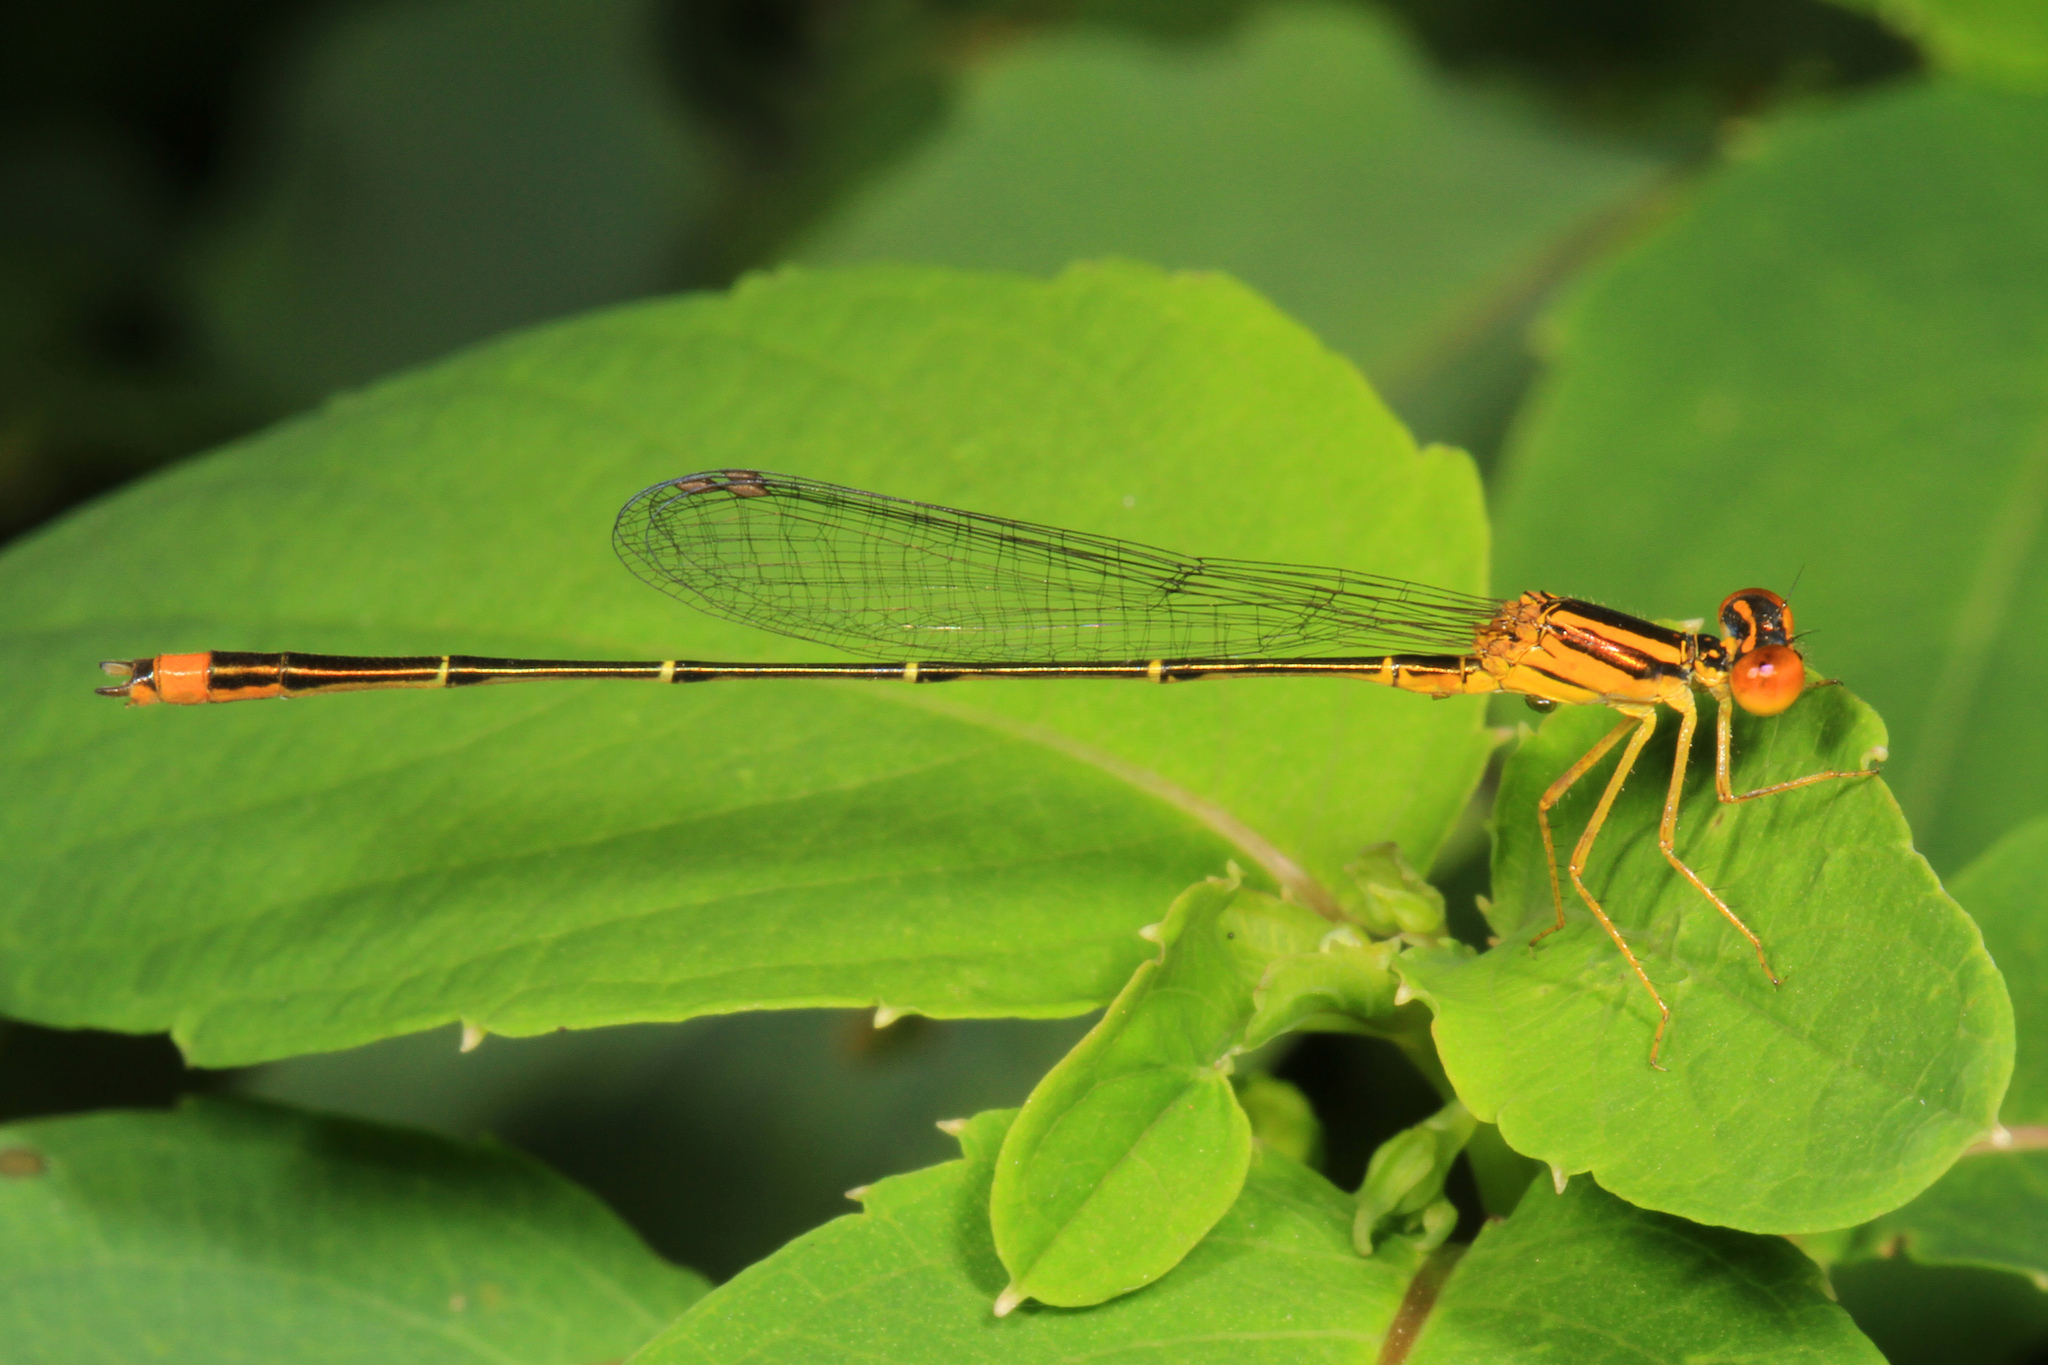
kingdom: Animalia
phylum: Arthropoda
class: Insecta
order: Odonata
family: Coenagrionidae
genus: Enallagma
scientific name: Enallagma signatum
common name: Orange bluet
